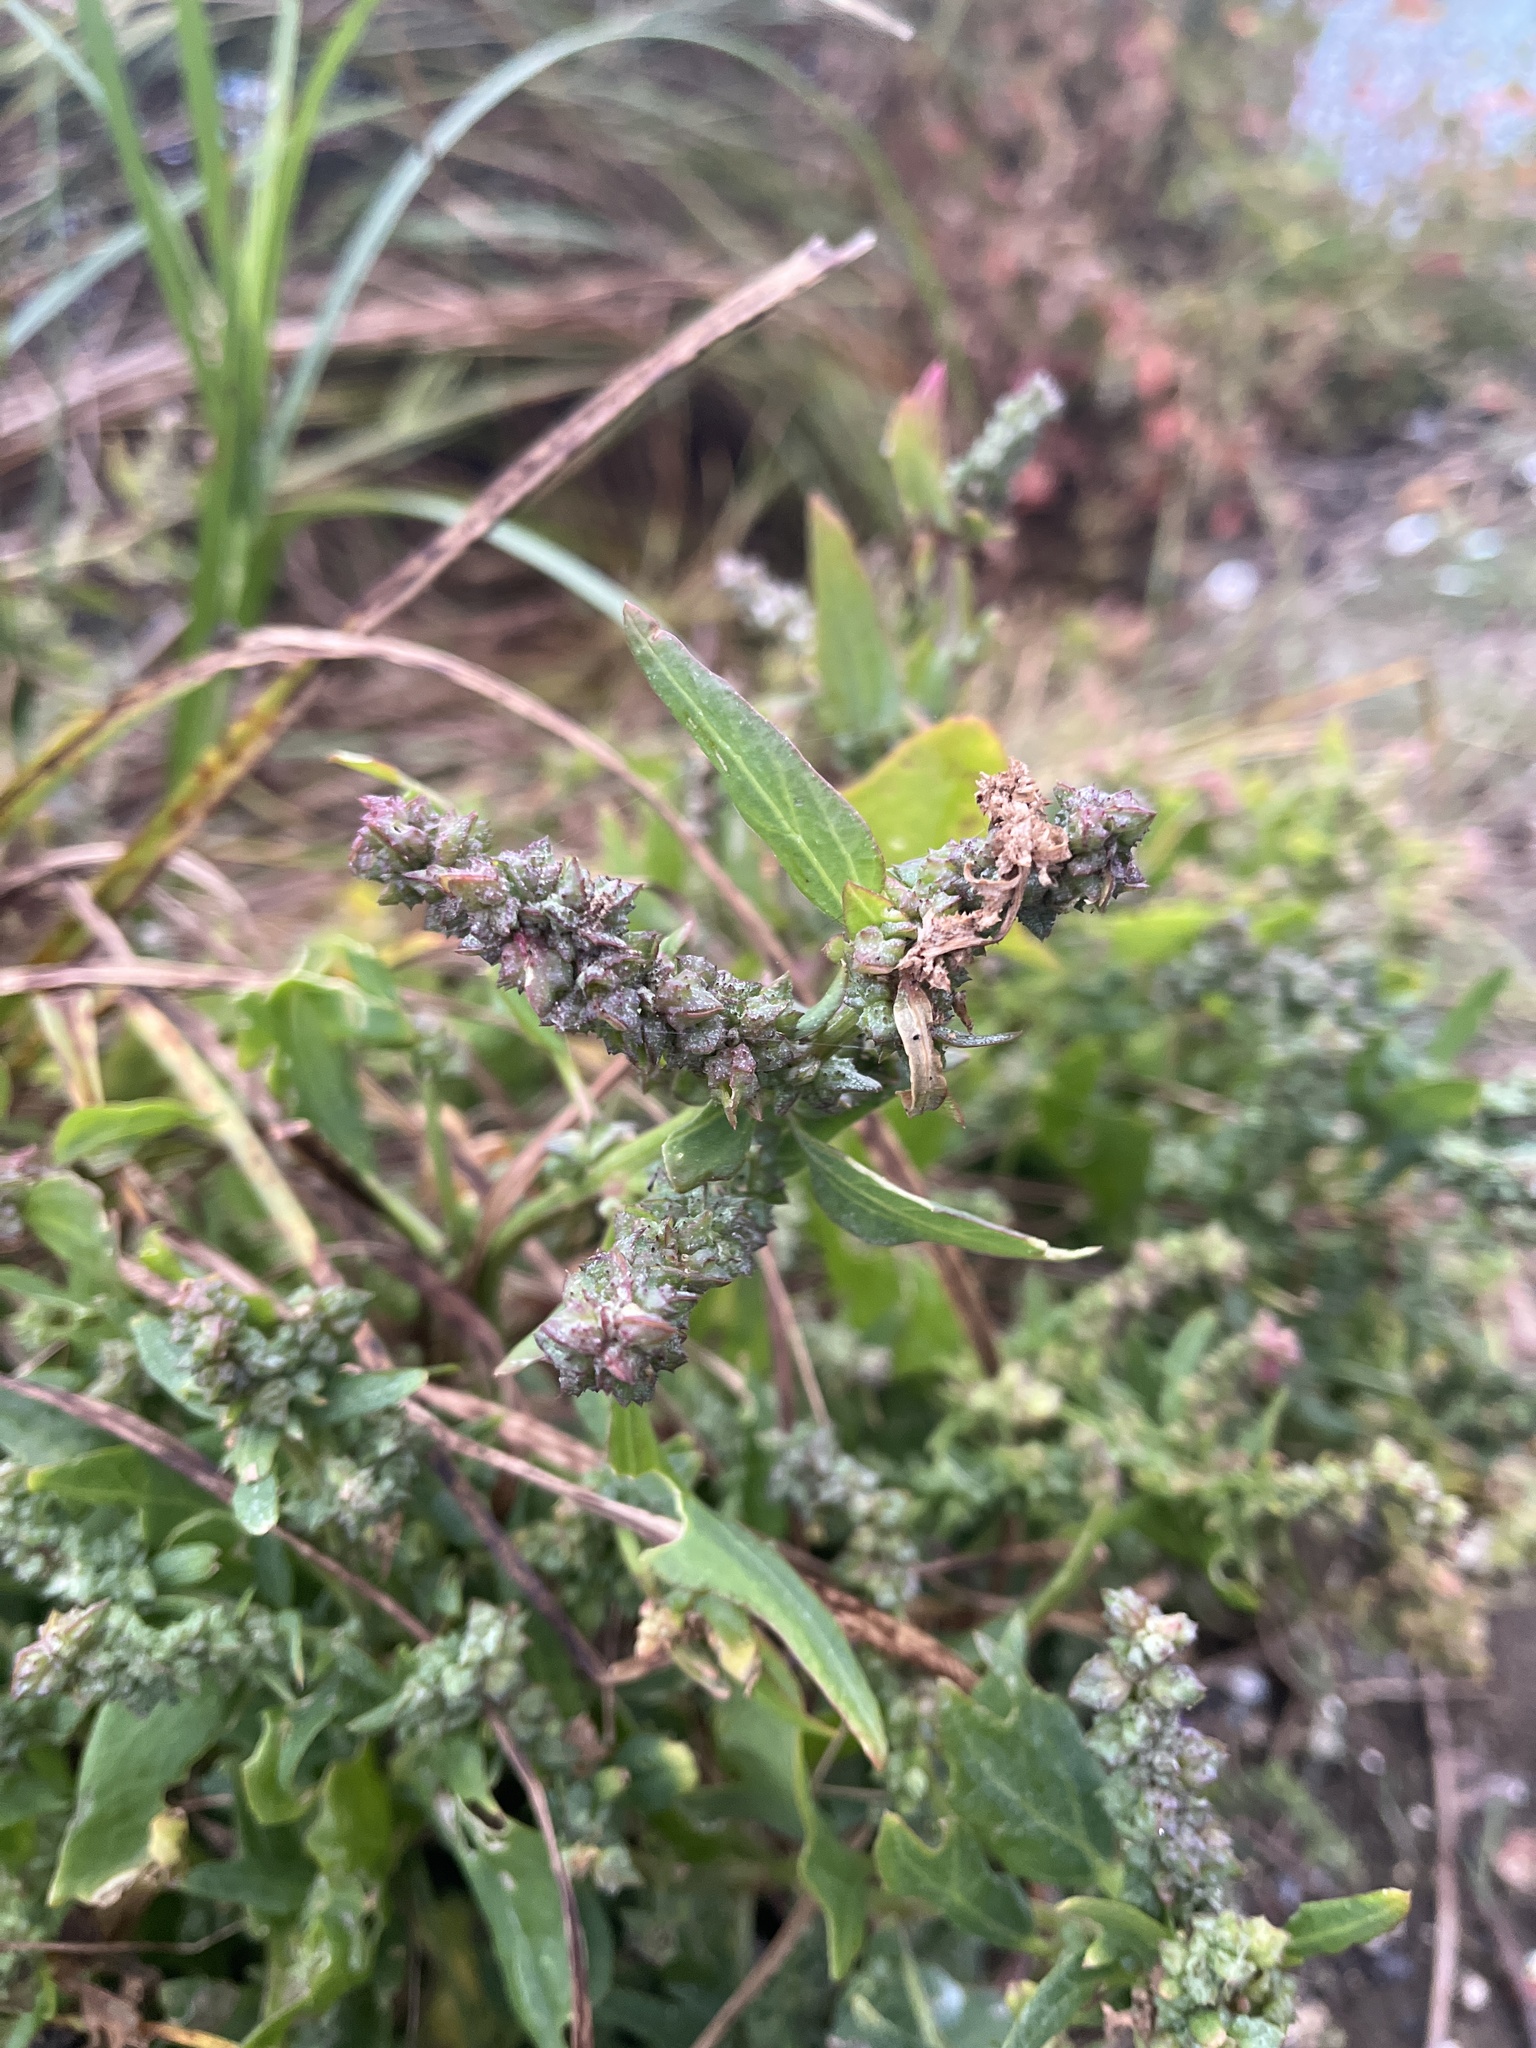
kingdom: Plantae
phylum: Tracheophyta
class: Magnoliopsida
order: Caryophyllales
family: Amaranthaceae
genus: Atriplex
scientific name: Atriplex prostrata
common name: Spear-leaved orache
